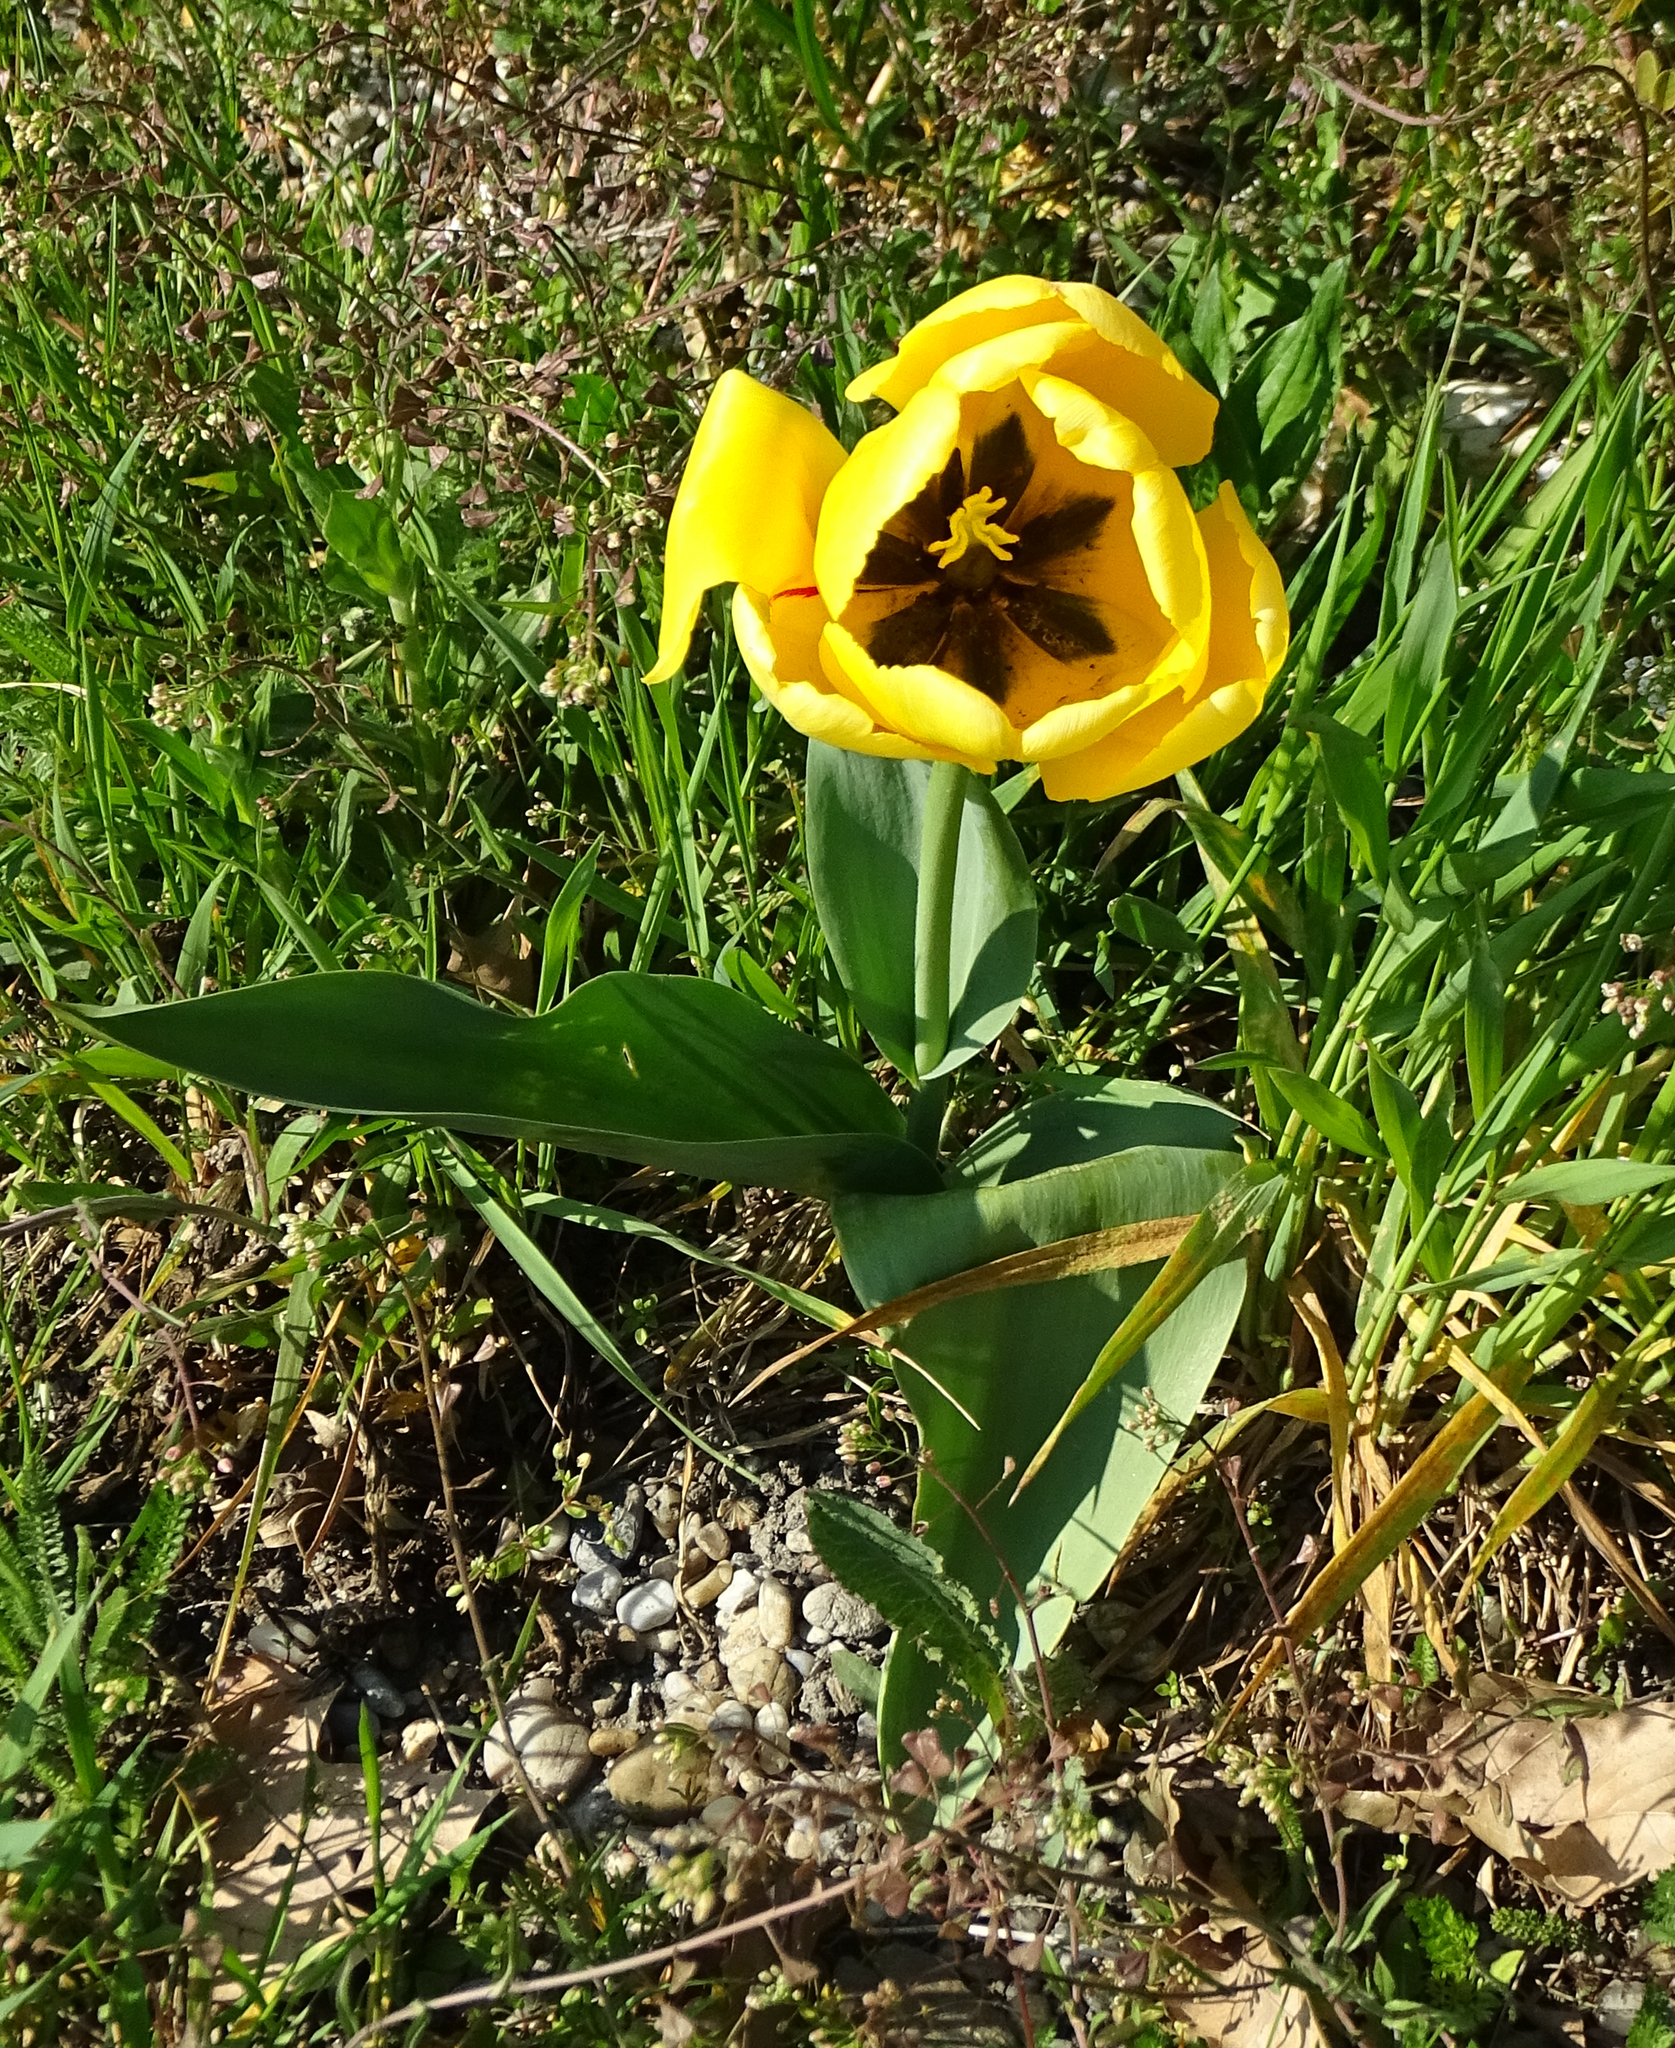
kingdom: Plantae
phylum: Tracheophyta
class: Liliopsida
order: Liliales
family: Liliaceae
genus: Tulipa
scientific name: Tulipa gesneriana
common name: Garden tulip
